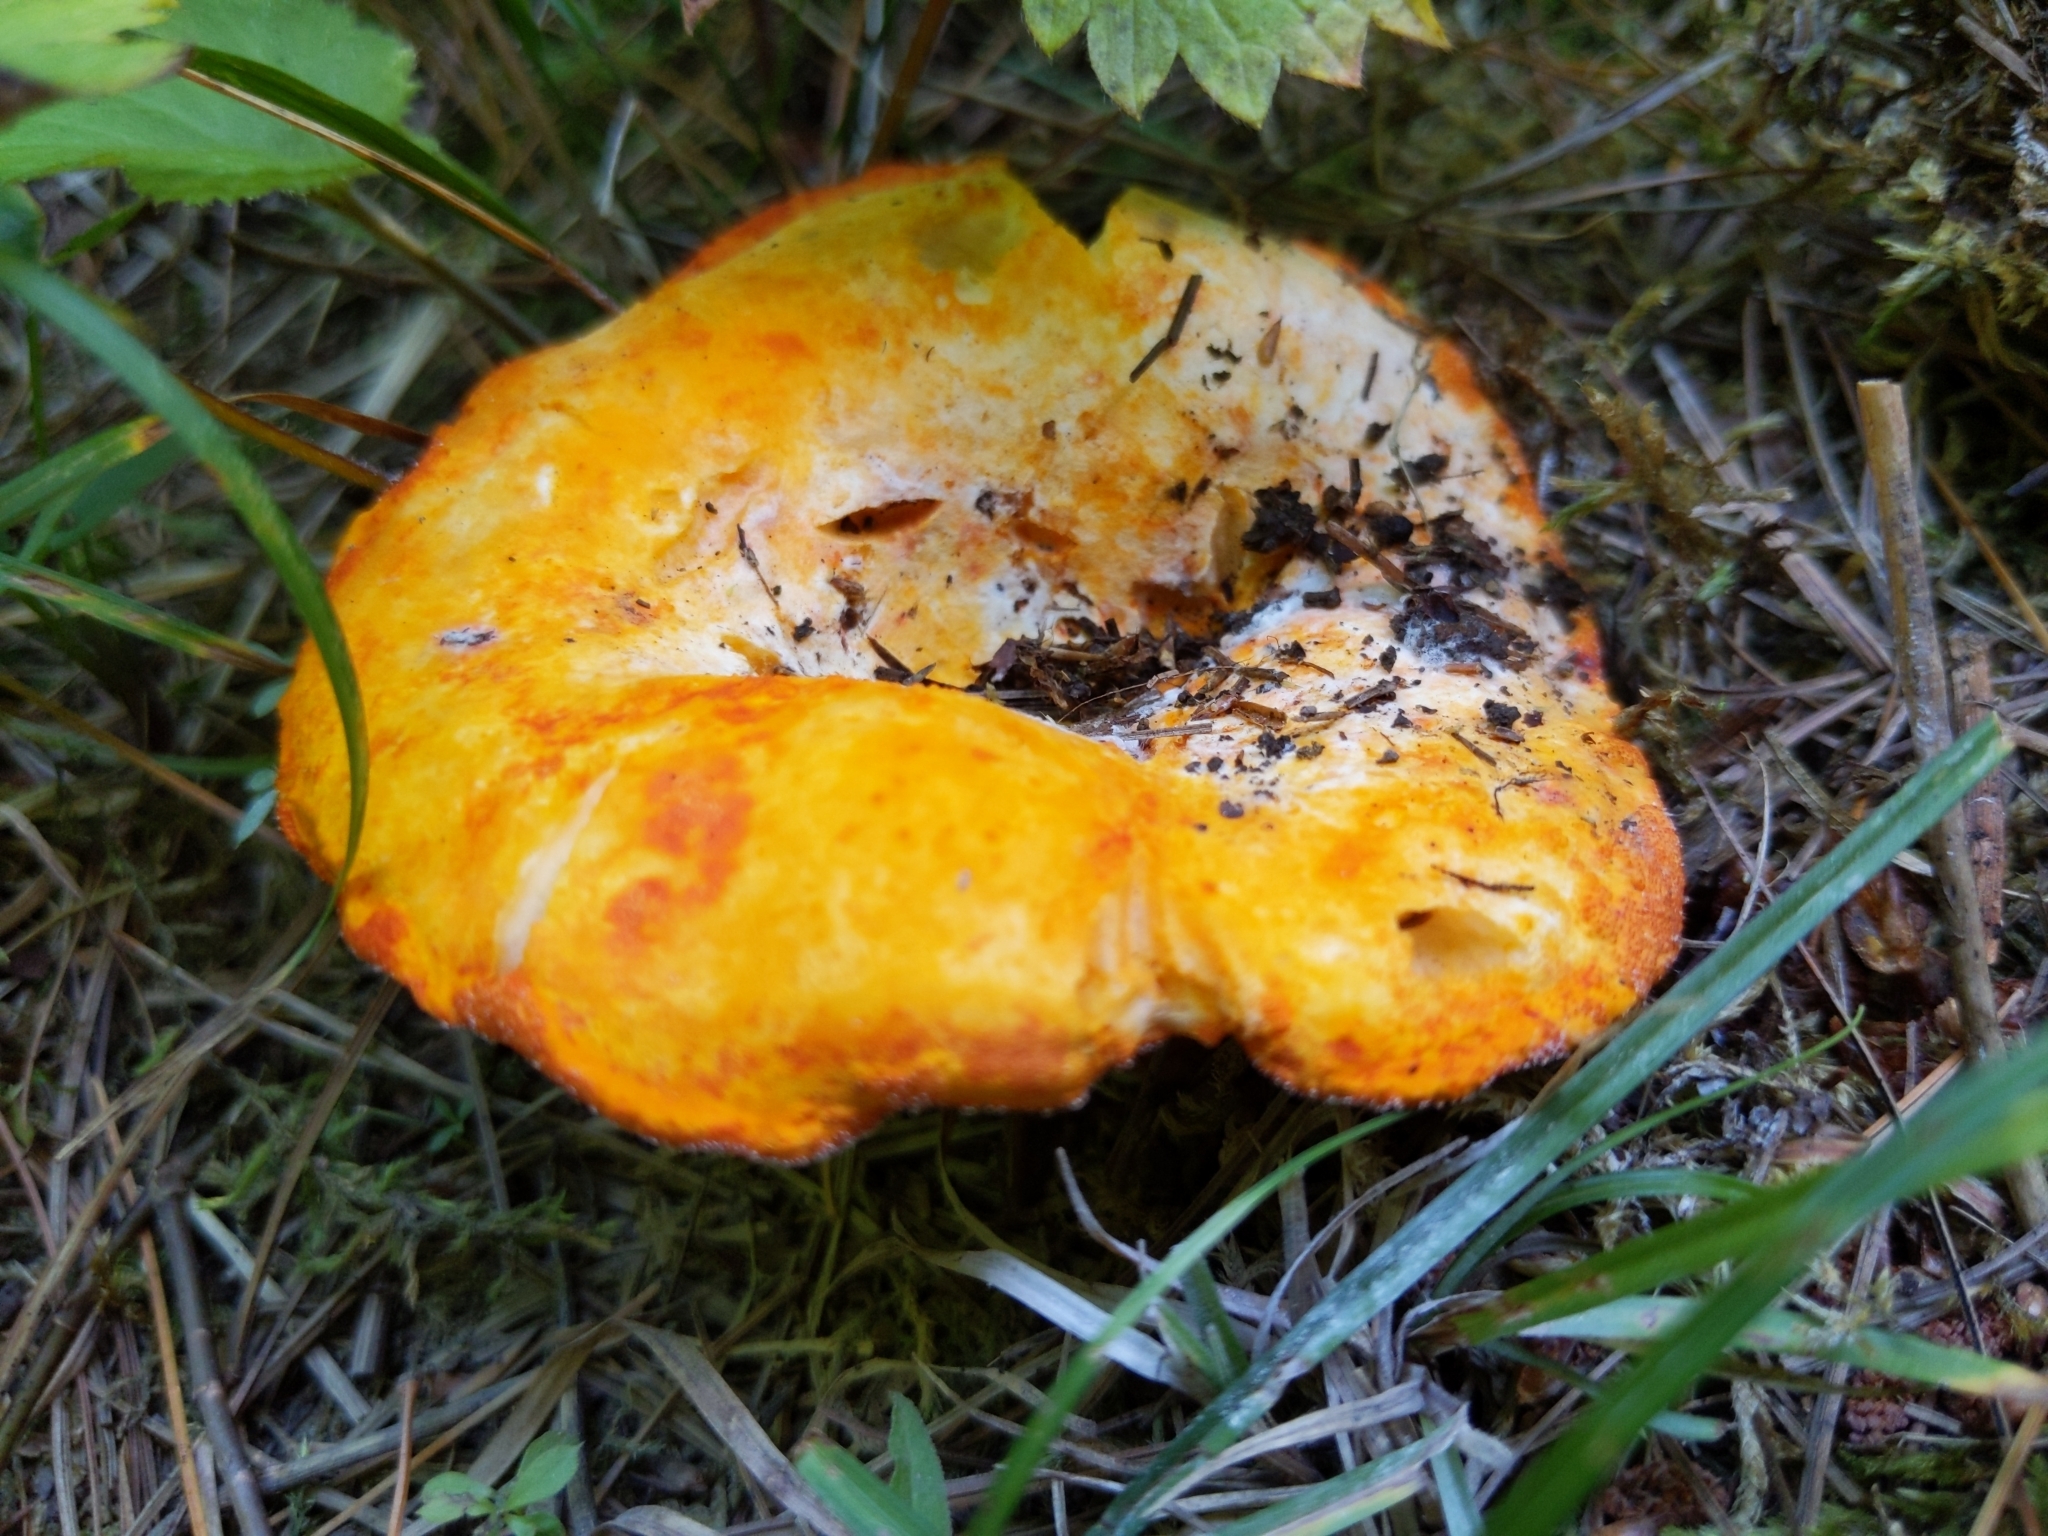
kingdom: Fungi
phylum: Ascomycota
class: Sordariomycetes
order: Hypocreales
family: Hypocreaceae
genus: Hypomyces
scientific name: Hypomyces lactifluorum
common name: Lobster mushroom
